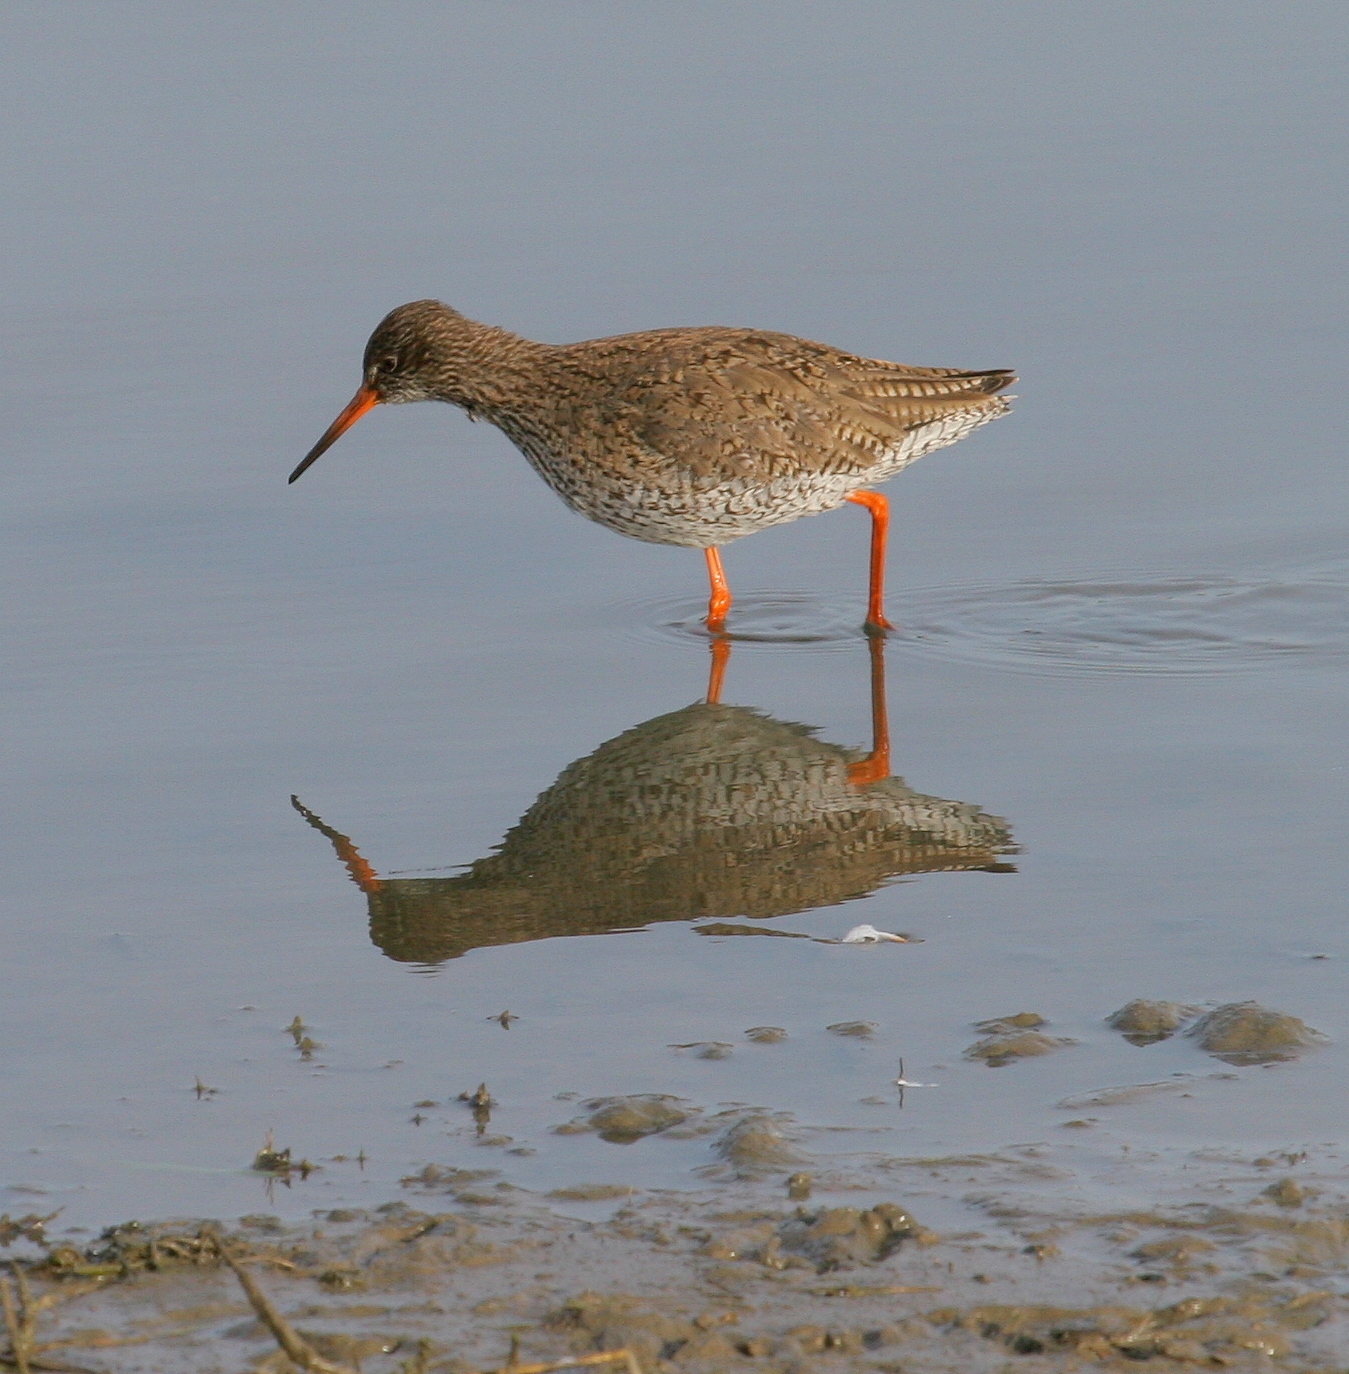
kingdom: Animalia
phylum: Chordata
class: Aves
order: Charadriiformes
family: Scolopacidae
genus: Tringa
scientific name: Tringa totanus
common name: Common redshank
